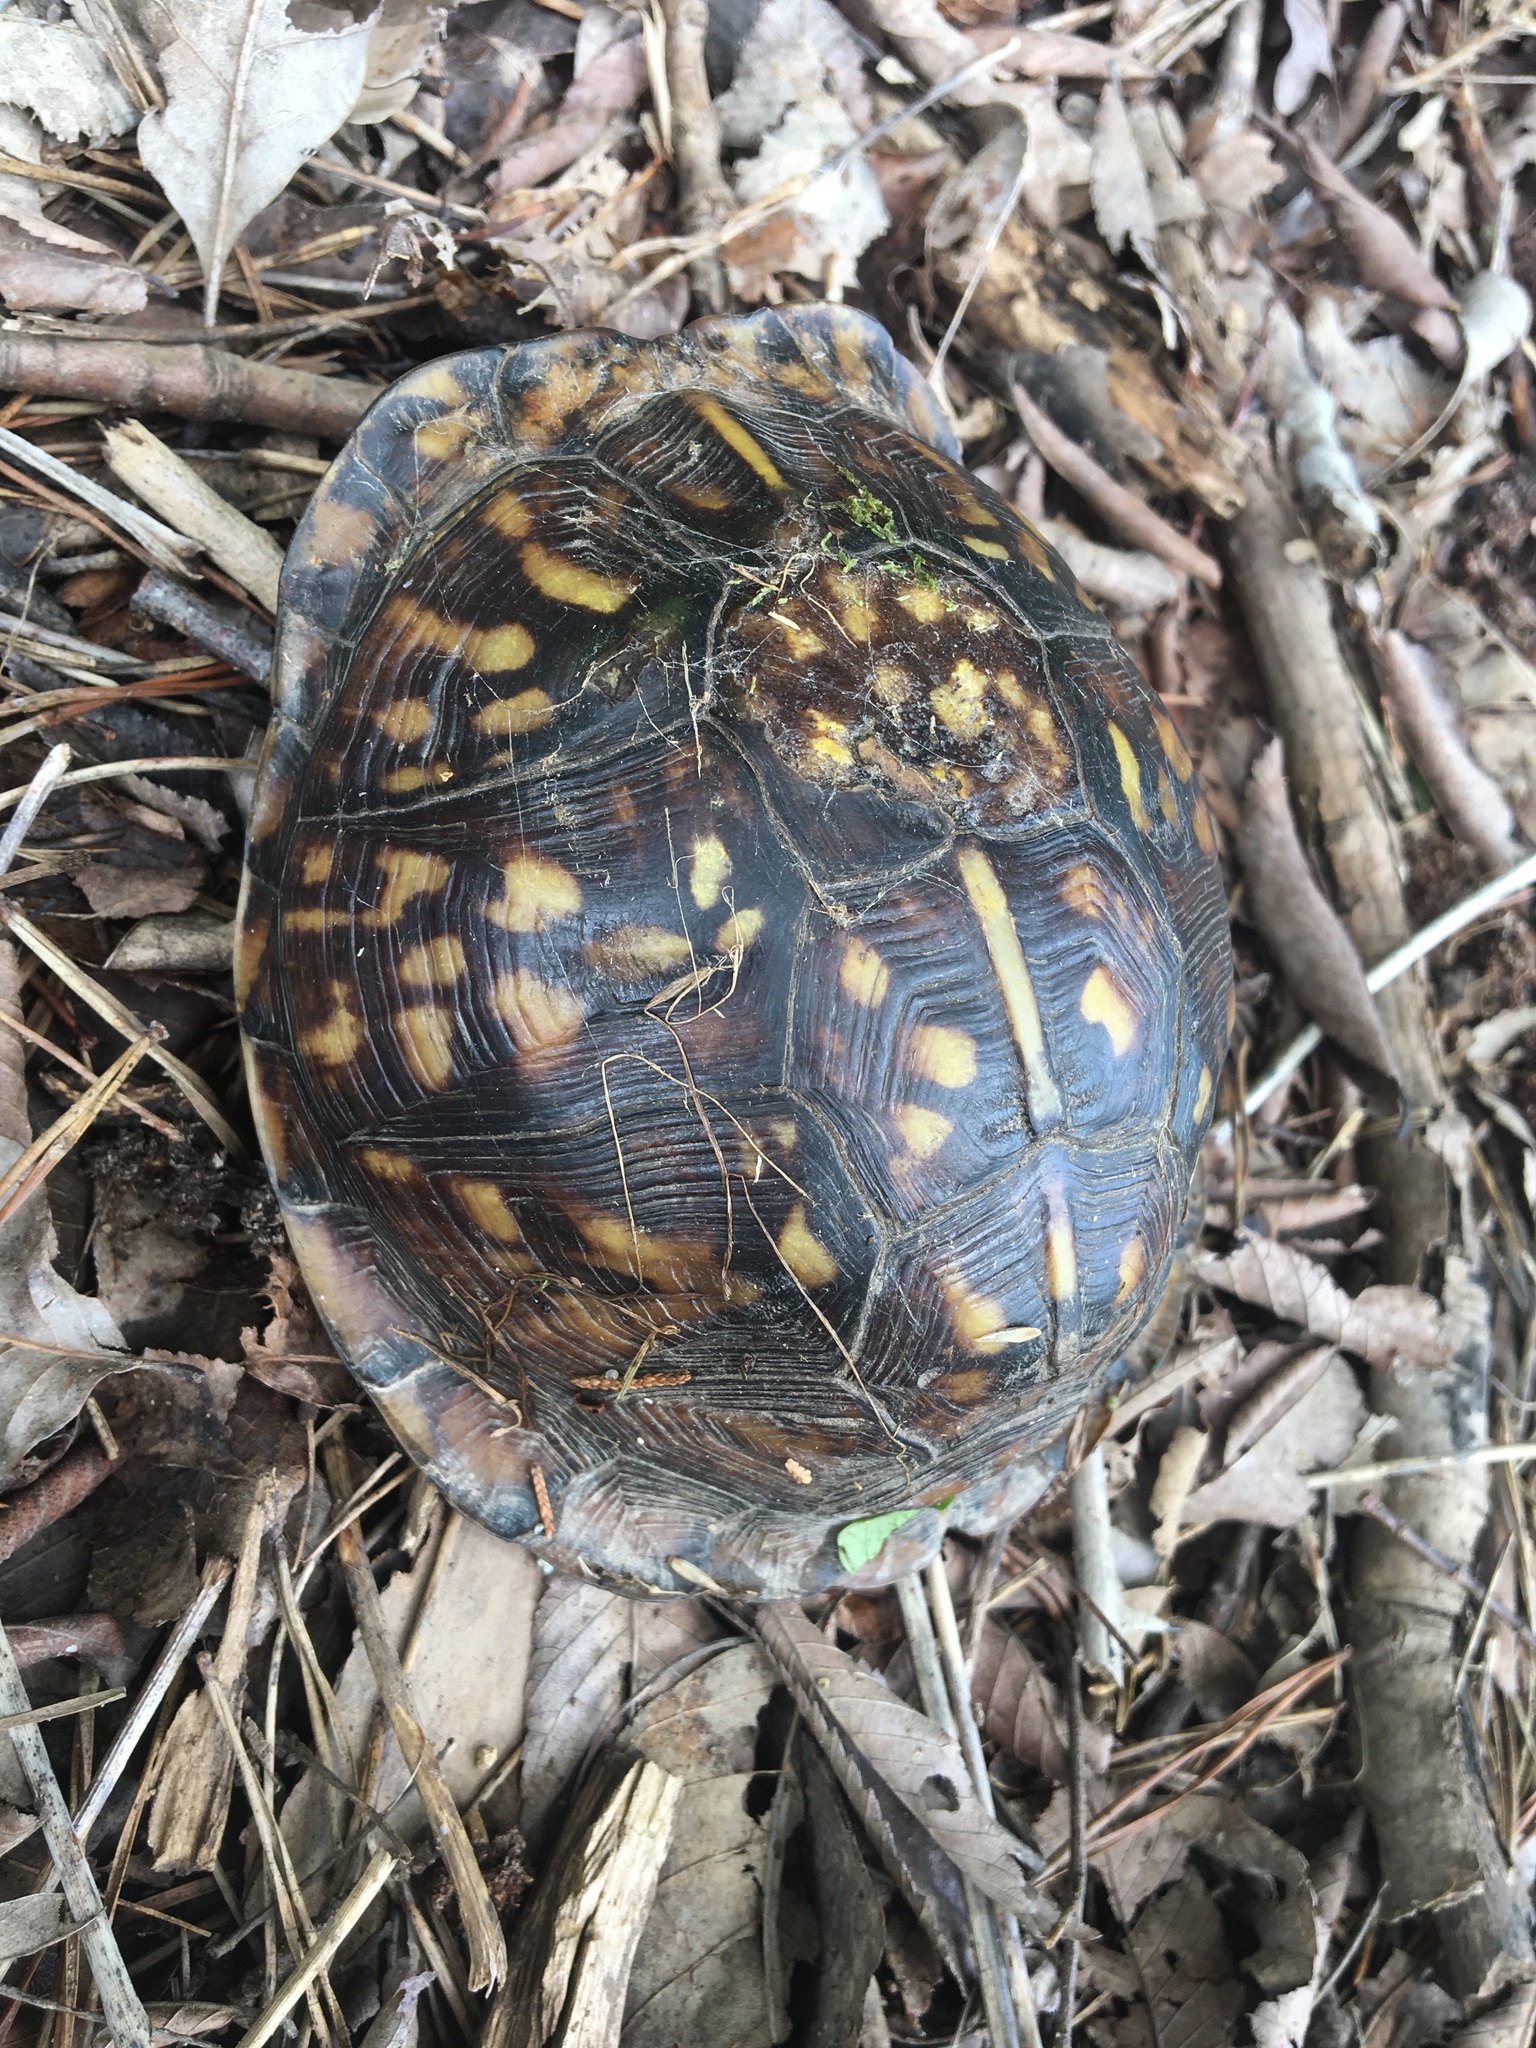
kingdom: Animalia
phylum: Chordata
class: Testudines
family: Emydidae
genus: Terrapene
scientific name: Terrapene carolina
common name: Common box turtle
